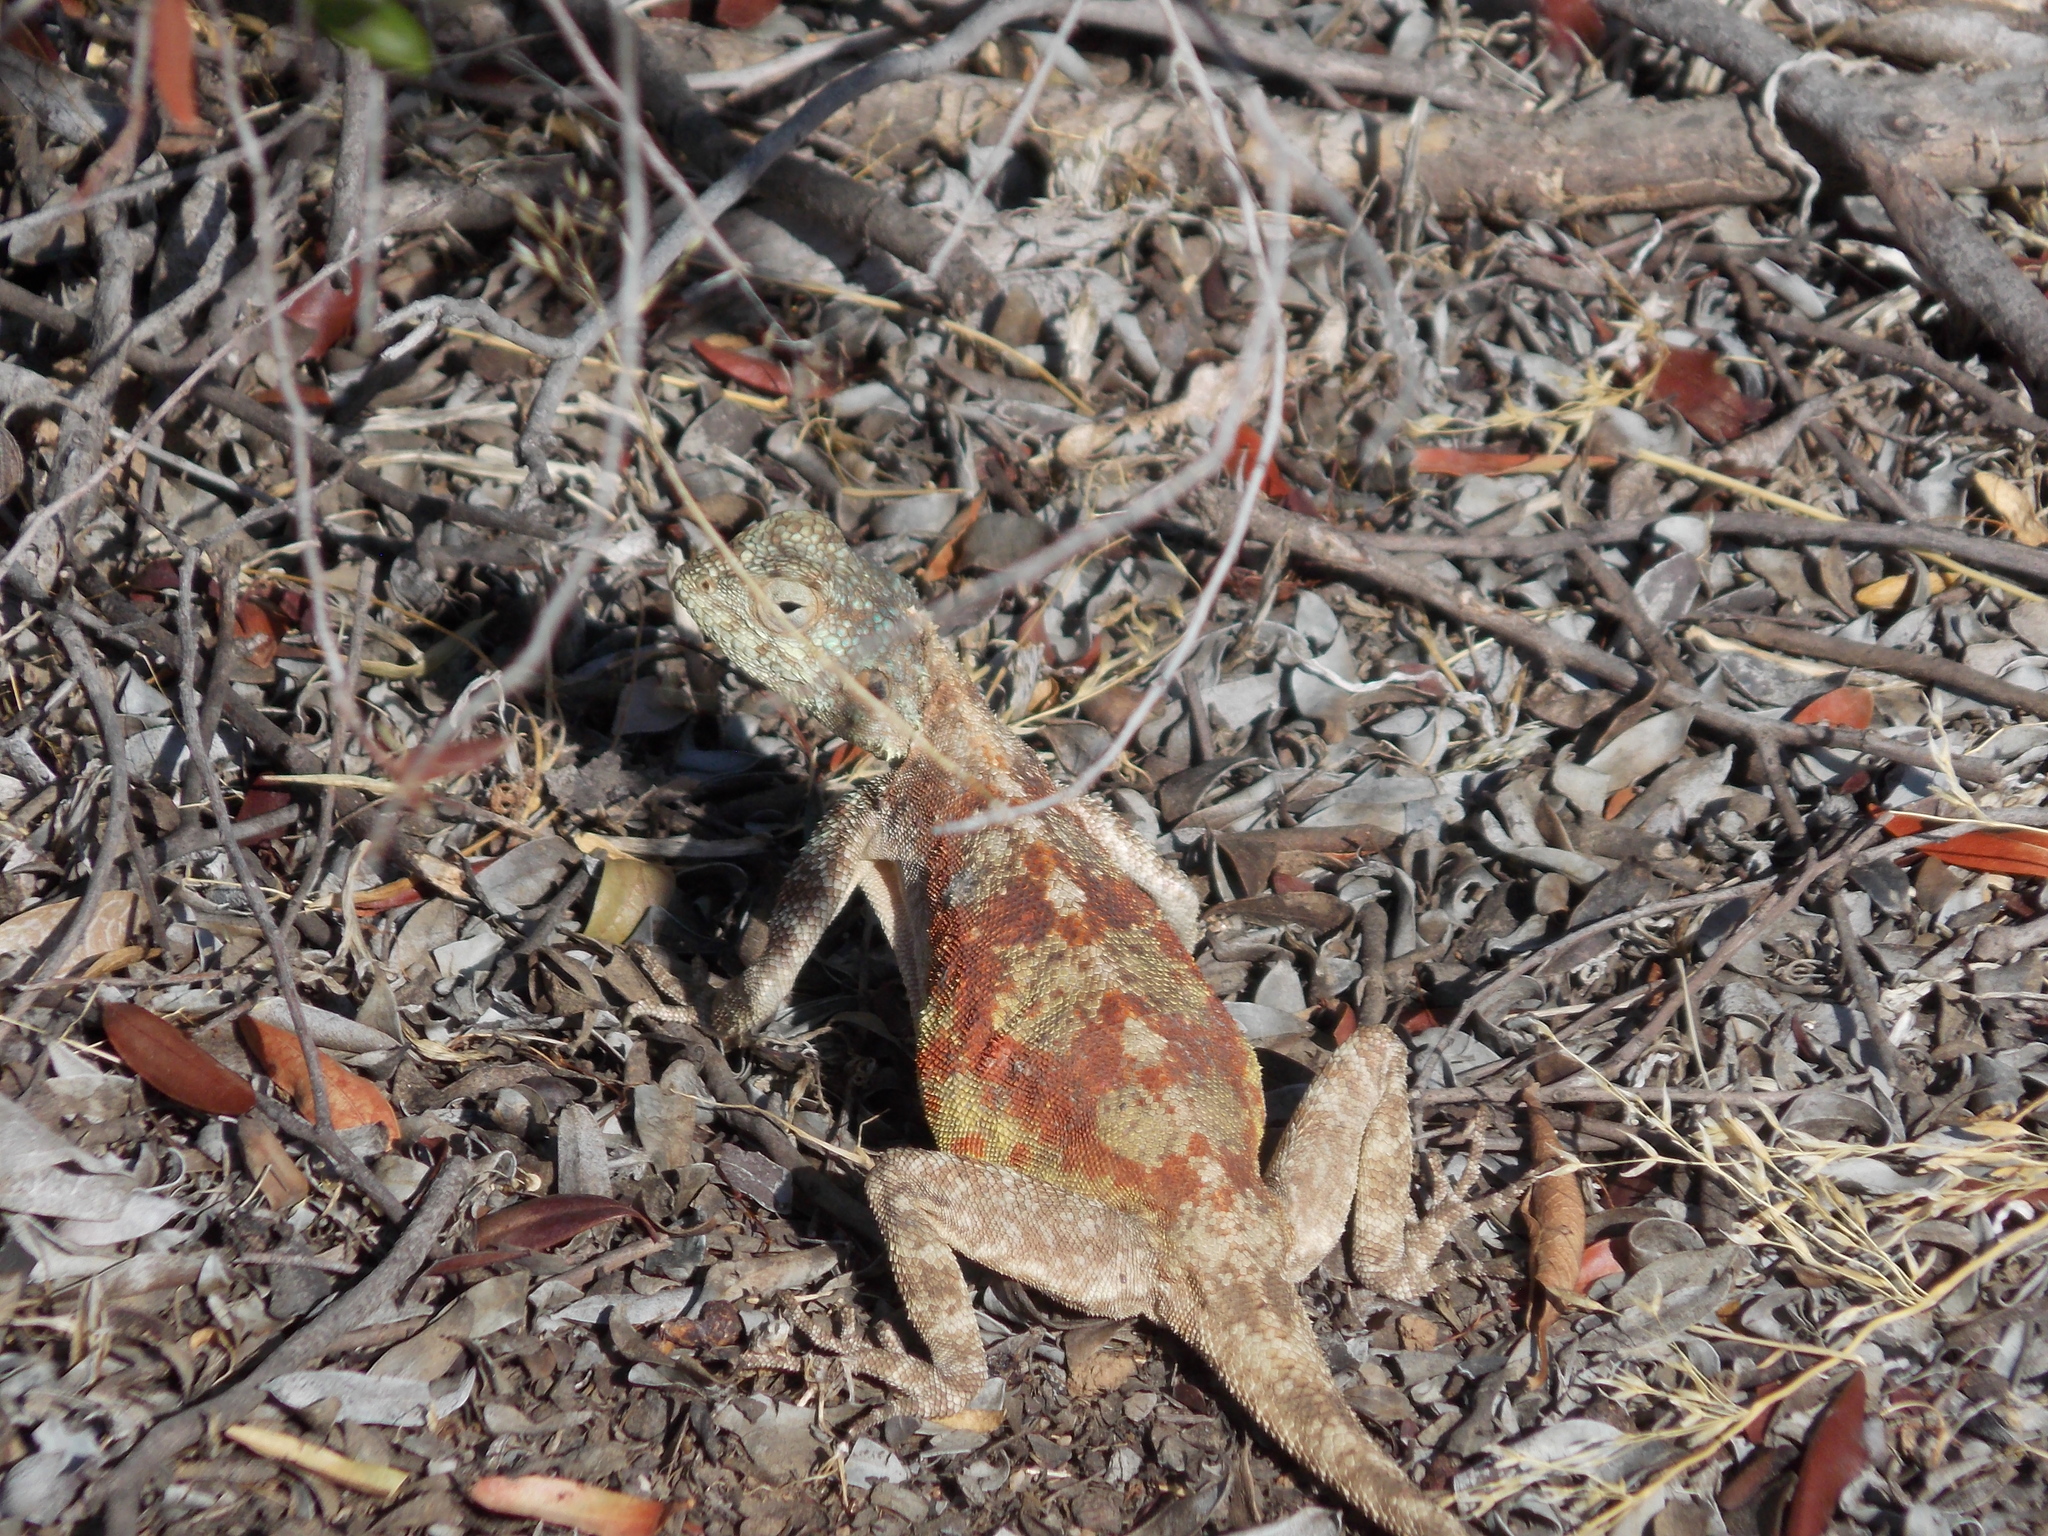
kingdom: Animalia
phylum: Chordata
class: Squamata
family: Agamidae
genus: Agama
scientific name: Agama atra
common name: Southern african rock agama
